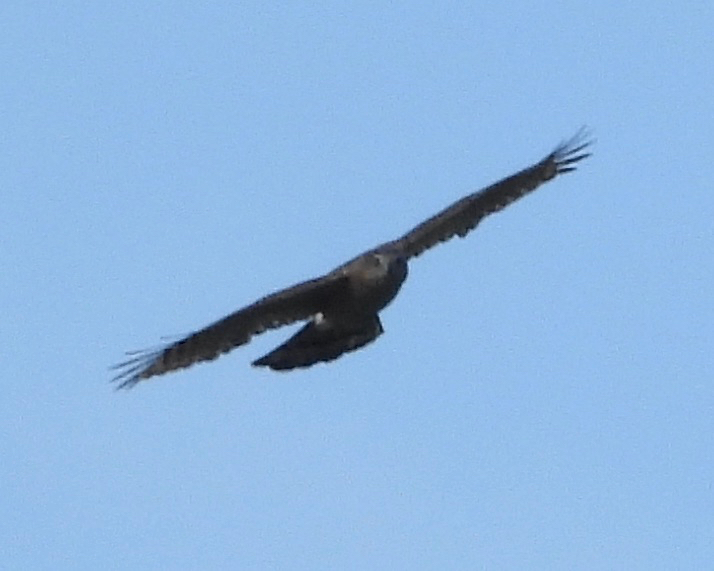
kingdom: Animalia
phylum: Chordata
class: Aves
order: Accipitriformes
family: Accipitridae
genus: Accipiter
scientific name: Accipiter cooperii
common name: Cooper's hawk
